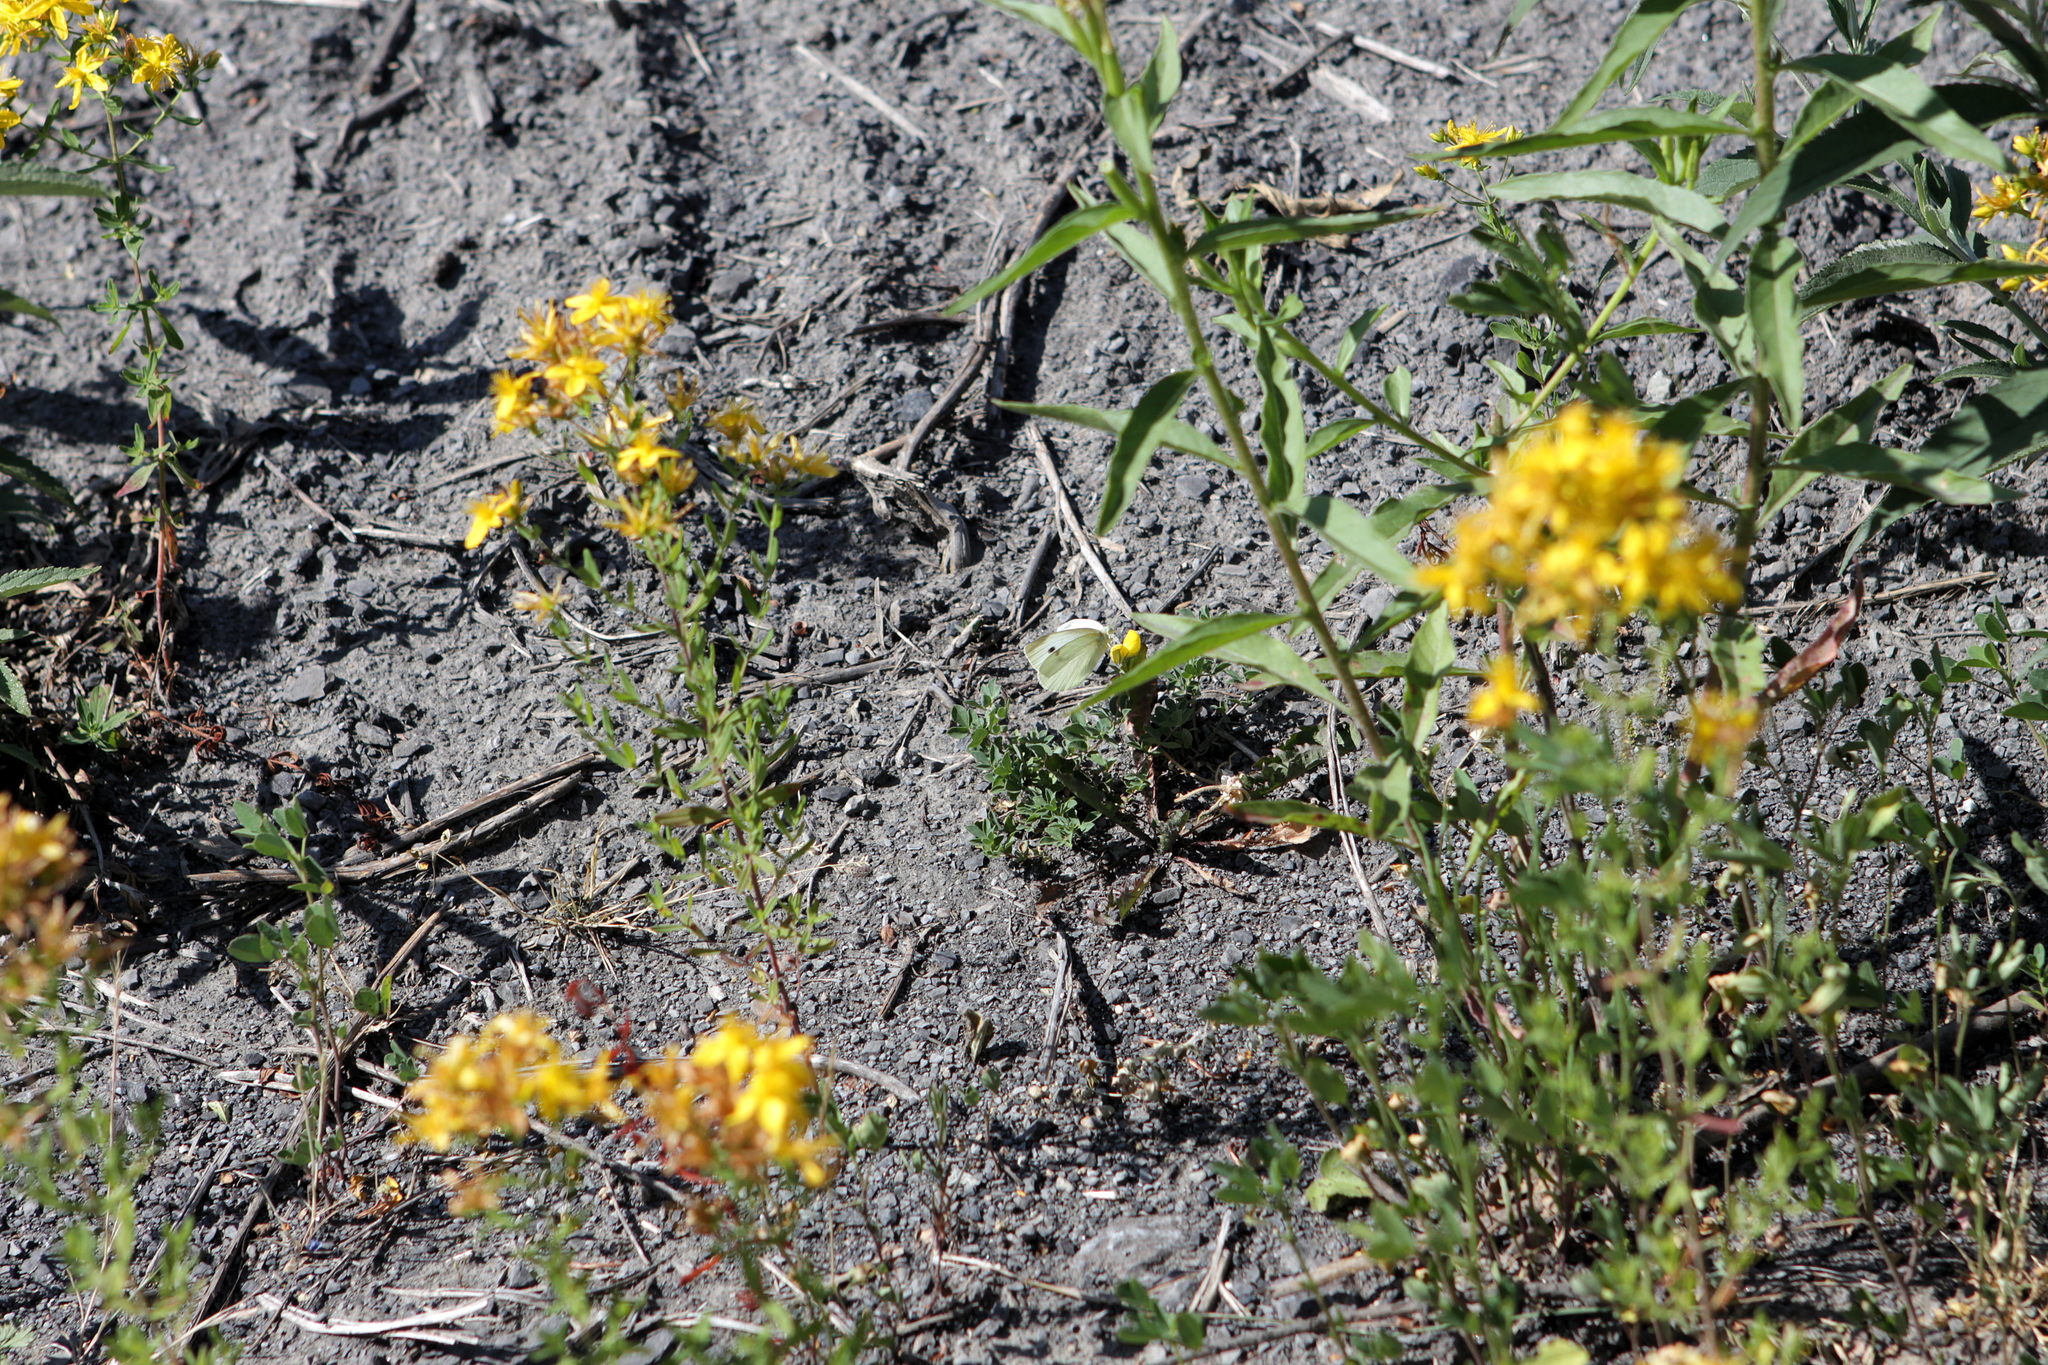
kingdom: Animalia
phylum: Arthropoda
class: Insecta
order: Lepidoptera
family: Pieridae
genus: Pieris
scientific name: Pieris rapae
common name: Small white
